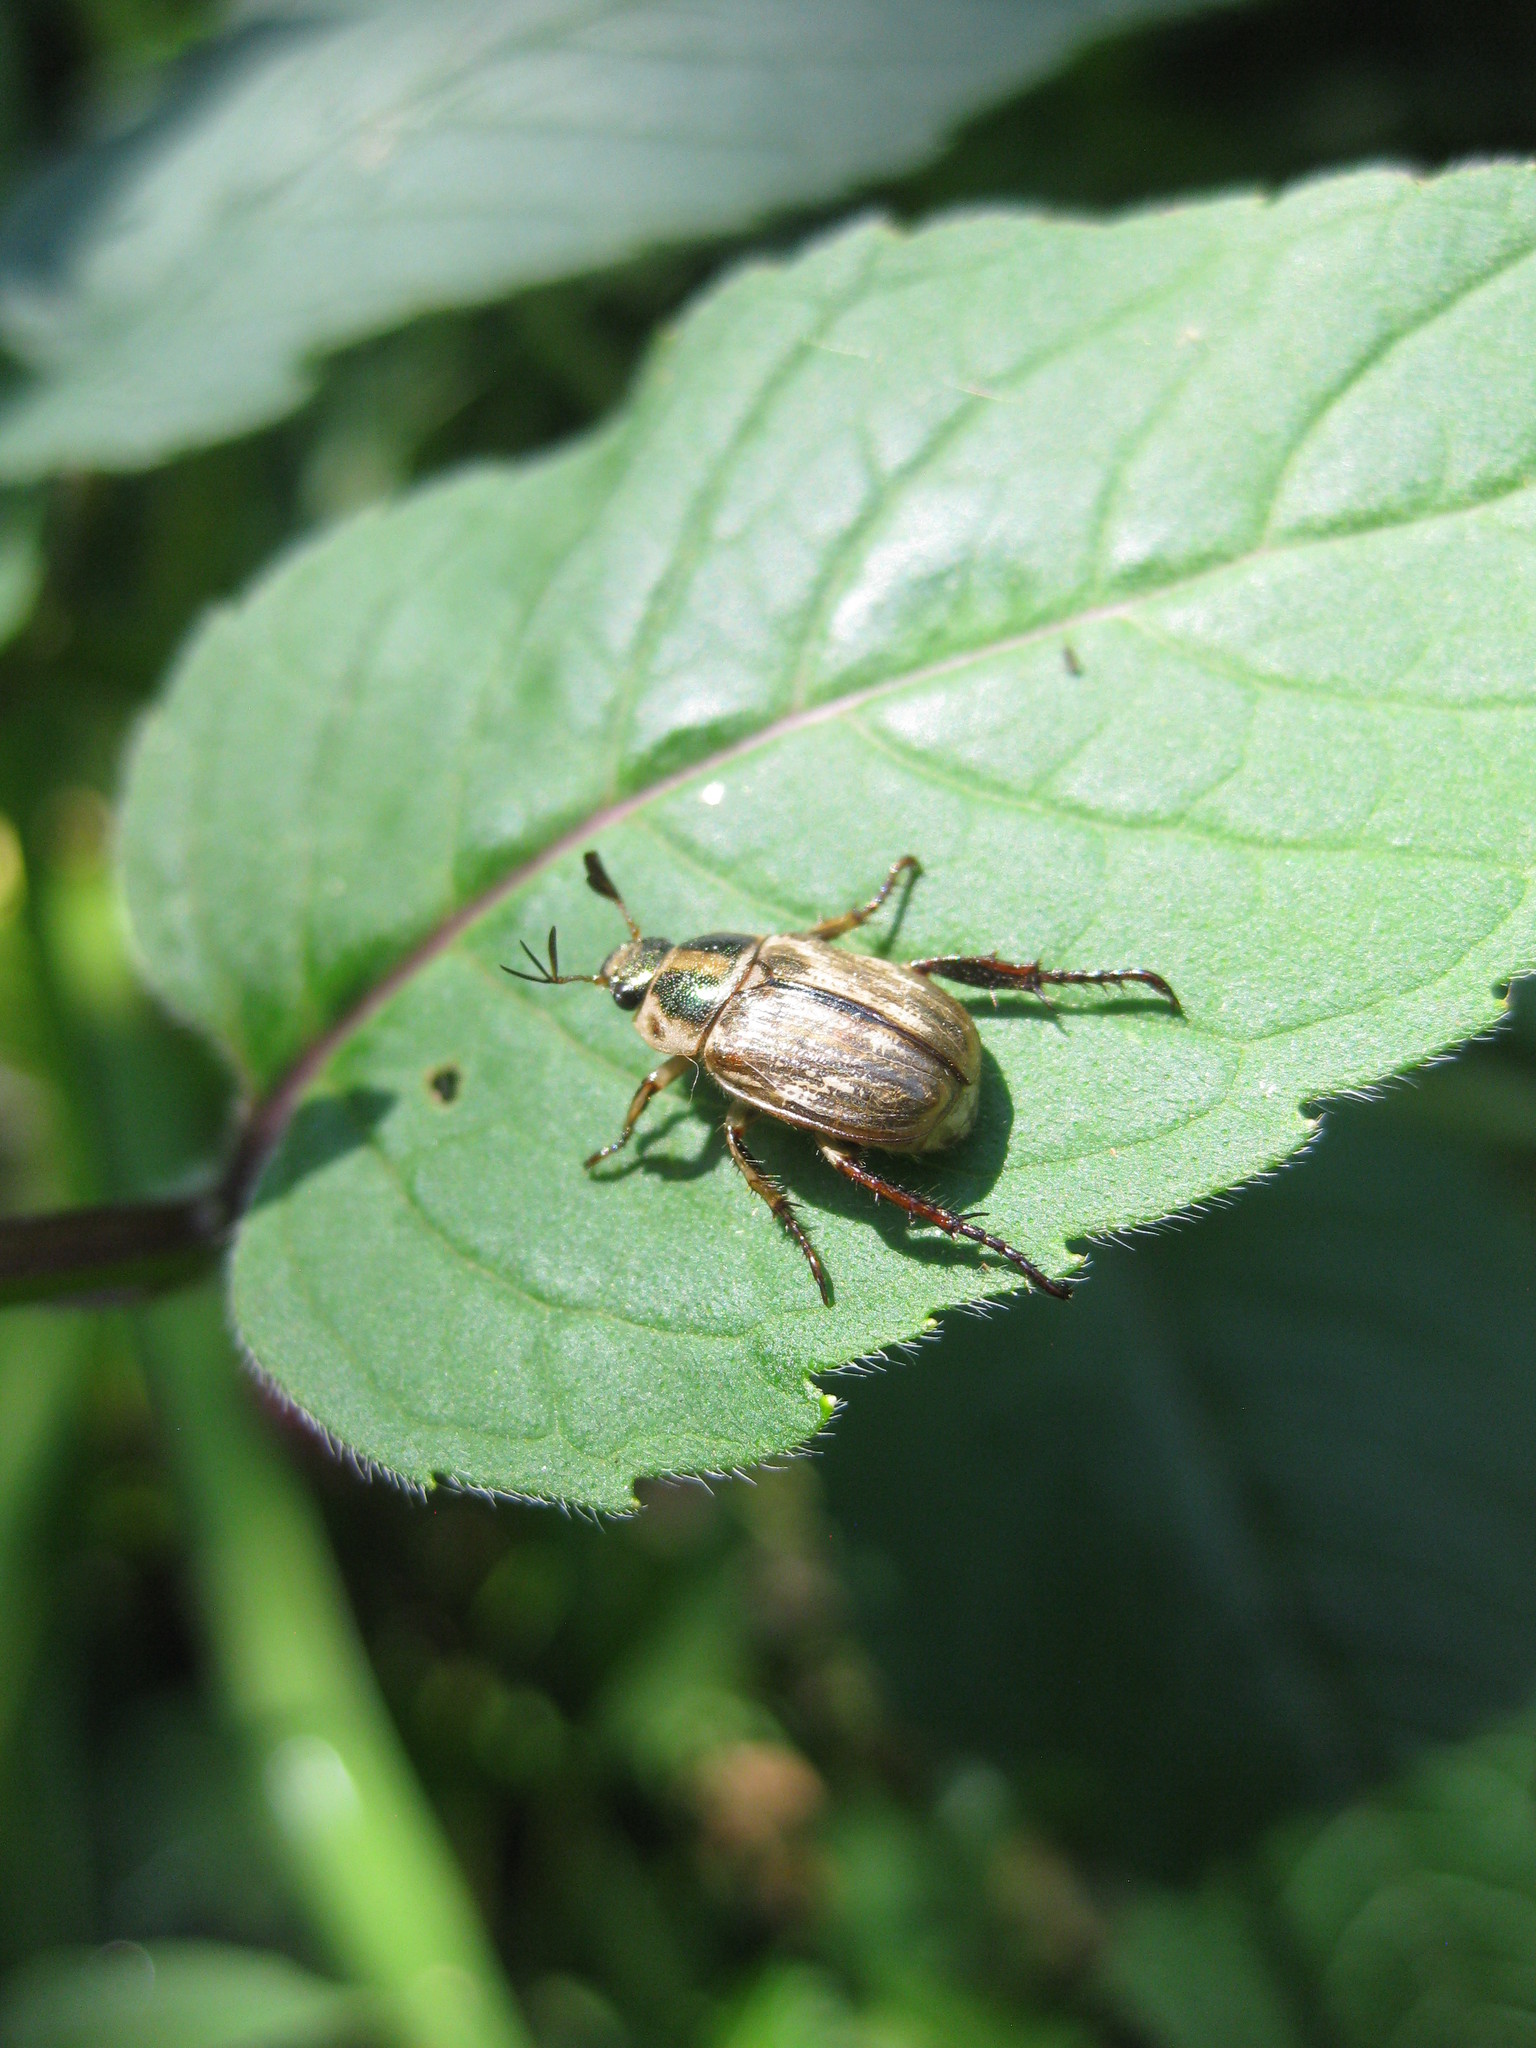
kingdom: Animalia
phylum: Arthropoda
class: Insecta
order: Coleoptera
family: Scarabaeidae
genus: Exomala
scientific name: Exomala orientalis
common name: Oriental beetle
